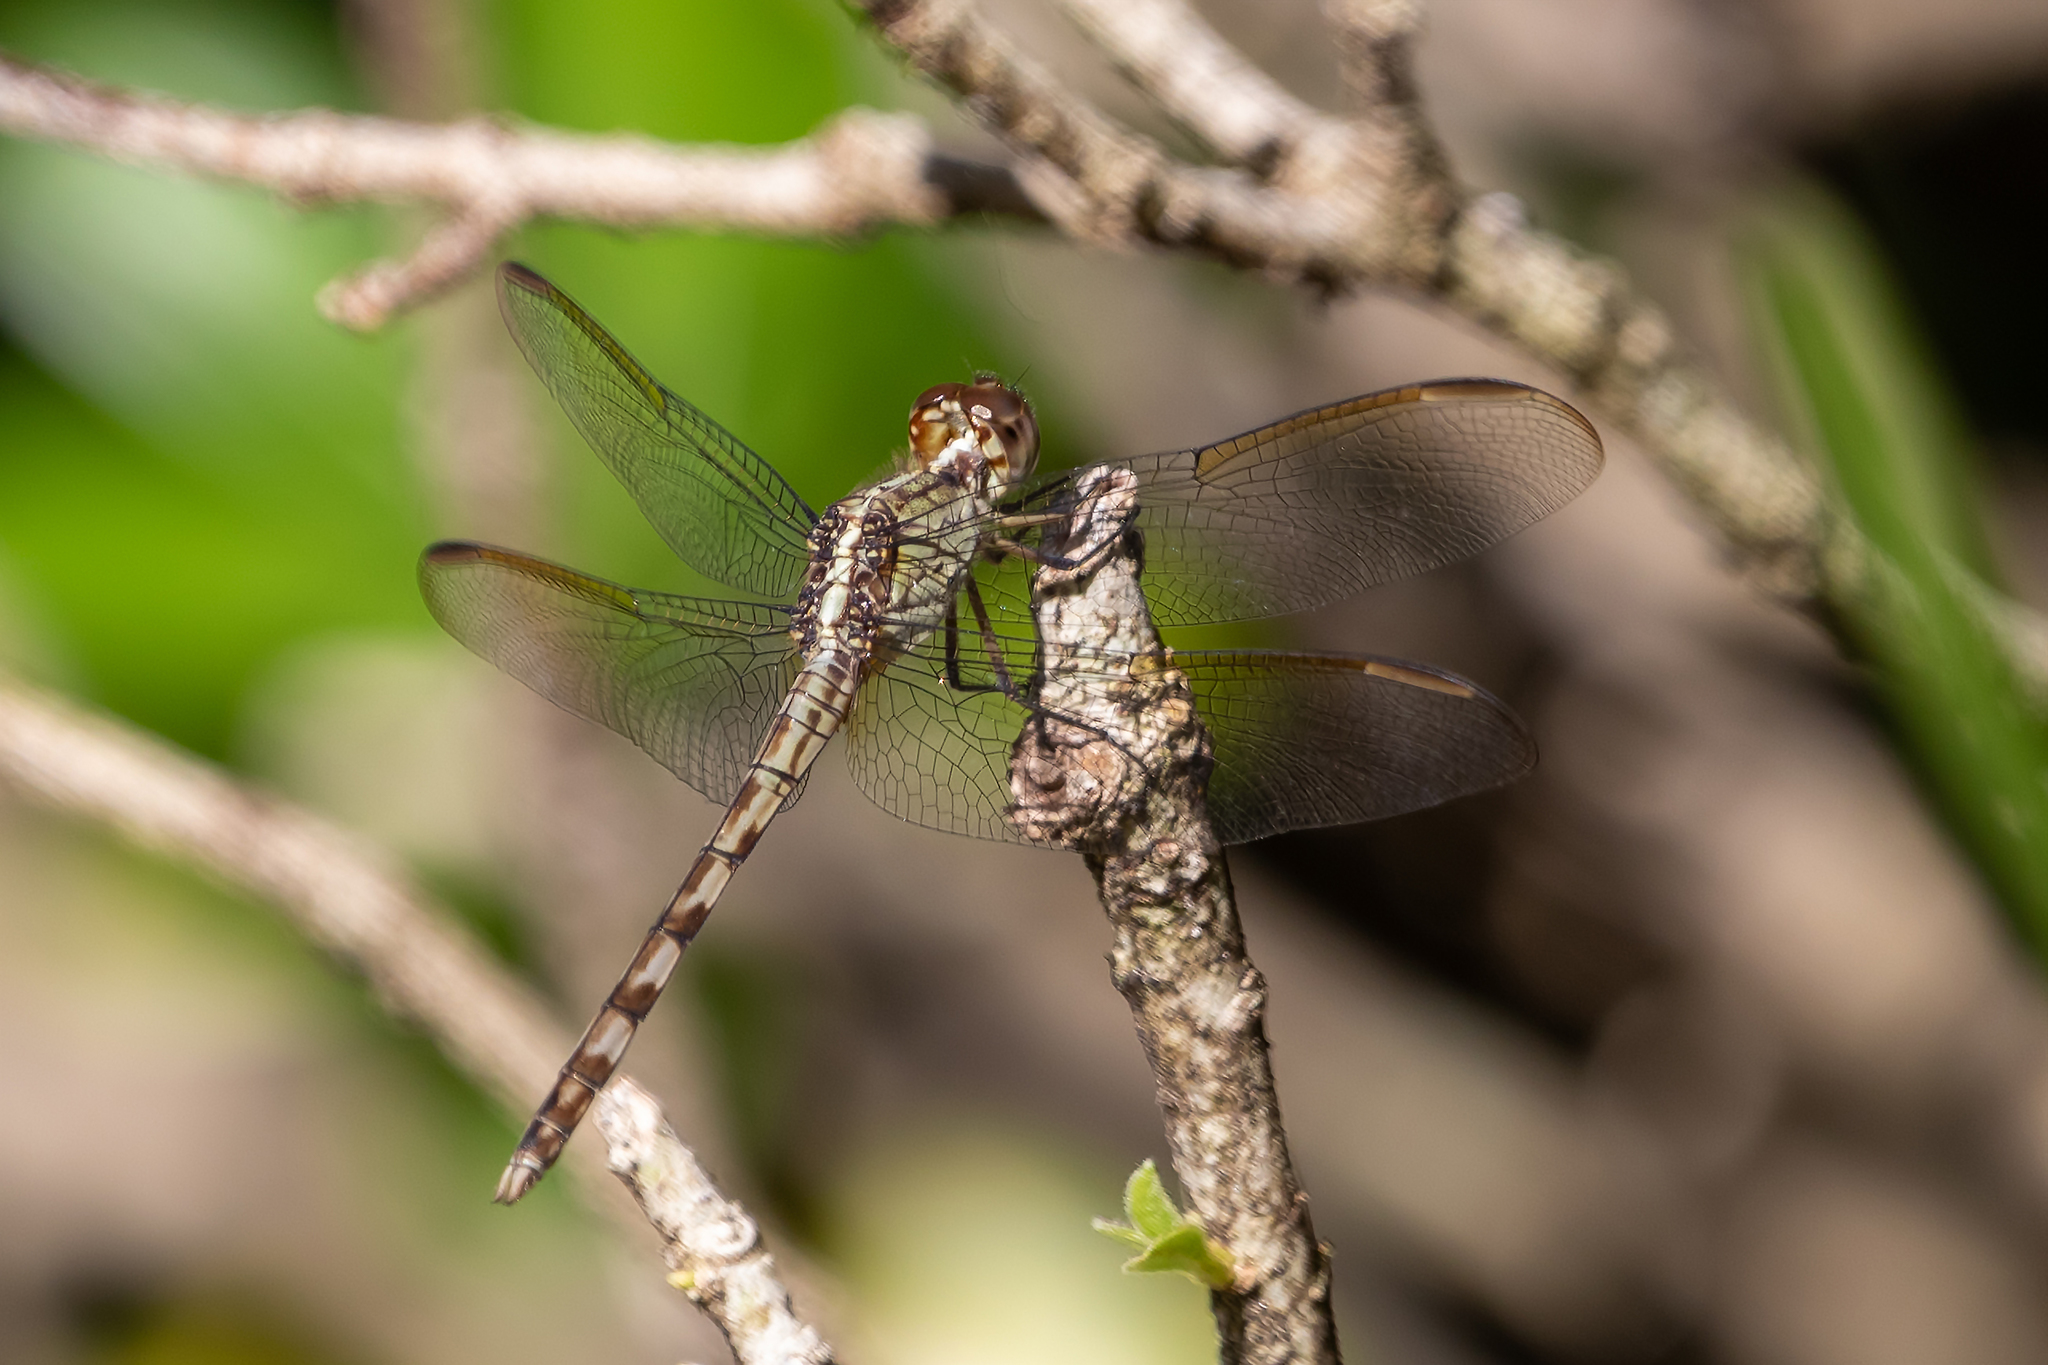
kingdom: Animalia
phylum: Arthropoda
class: Insecta
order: Odonata
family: Libellulidae
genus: Erythrodiplax
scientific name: Erythrodiplax umbrata
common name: Band-winged dragonlet
